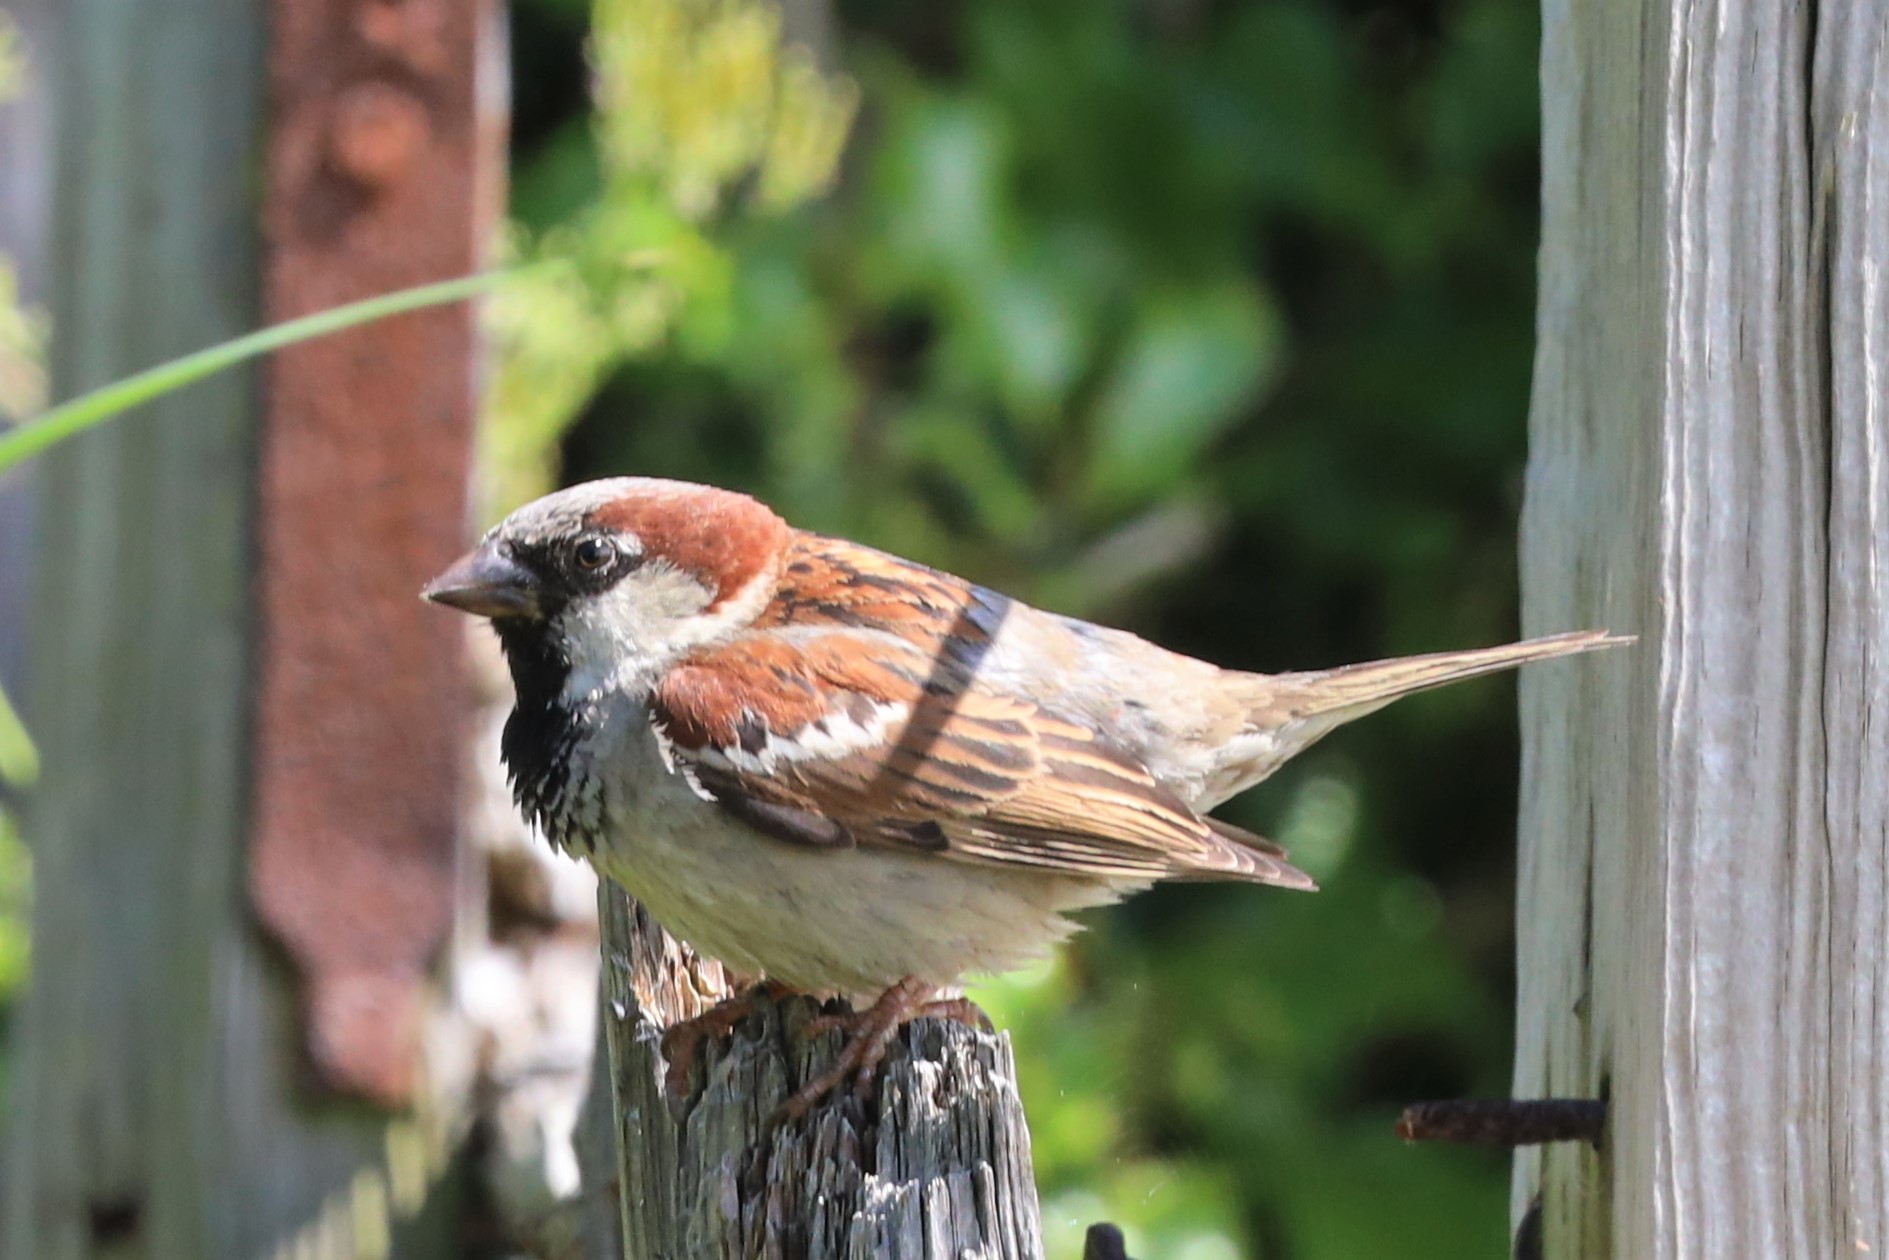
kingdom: Animalia
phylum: Chordata
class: Aves
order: Passeriformes
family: Passeridae
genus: Passer
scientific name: Passer domesticus
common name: House sparrow
